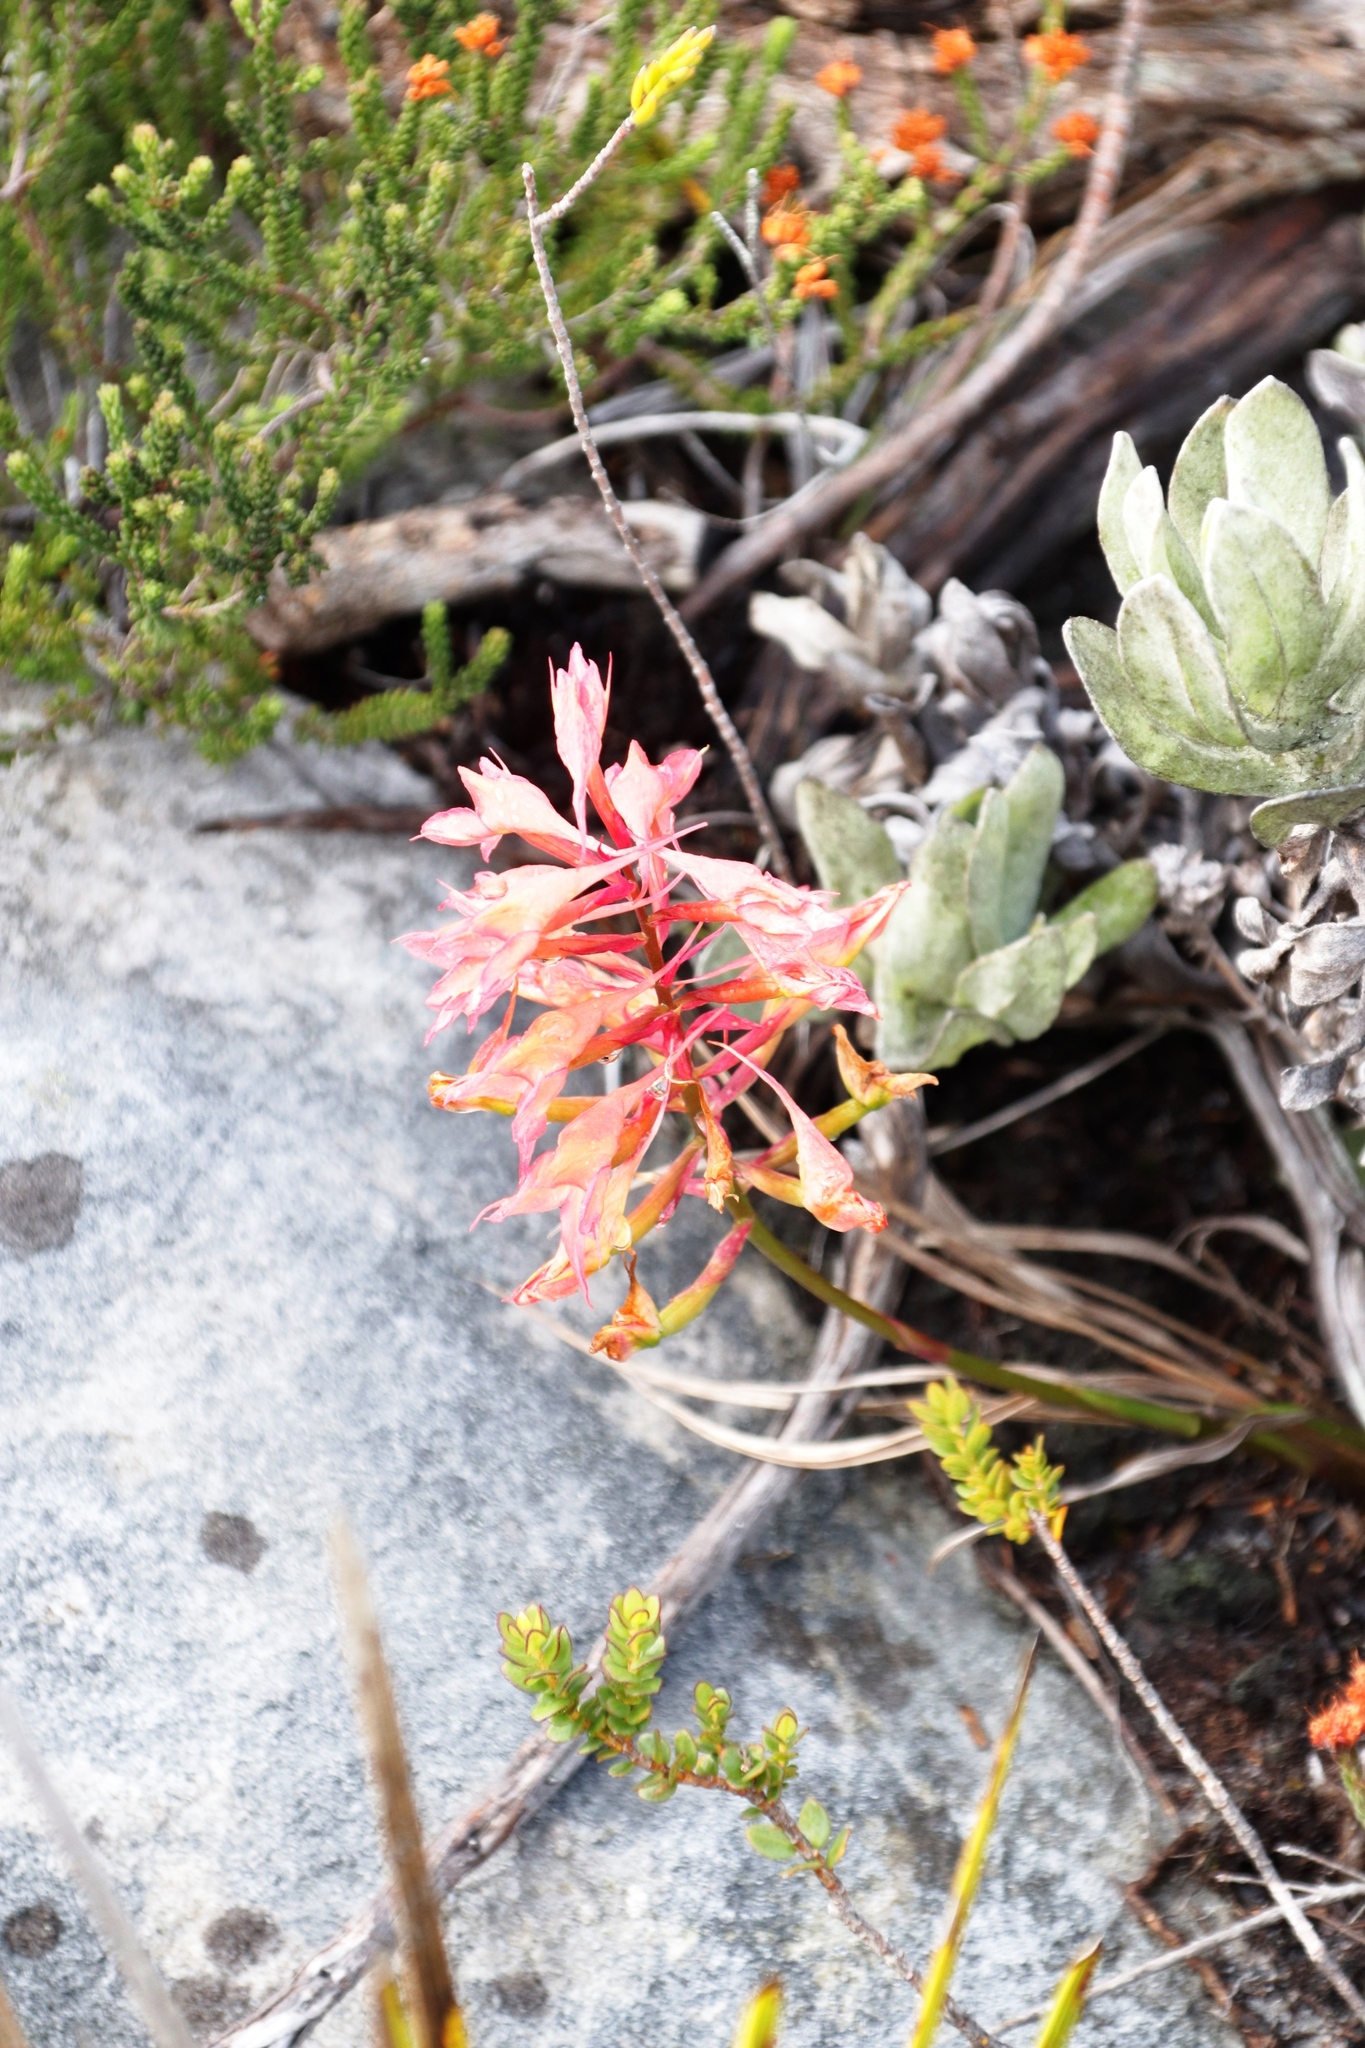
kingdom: Plantae
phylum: Tracheophyta
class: Liliopsida
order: Asparagales
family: Orchidaceae
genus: Disa
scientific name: Disa ferruginea
